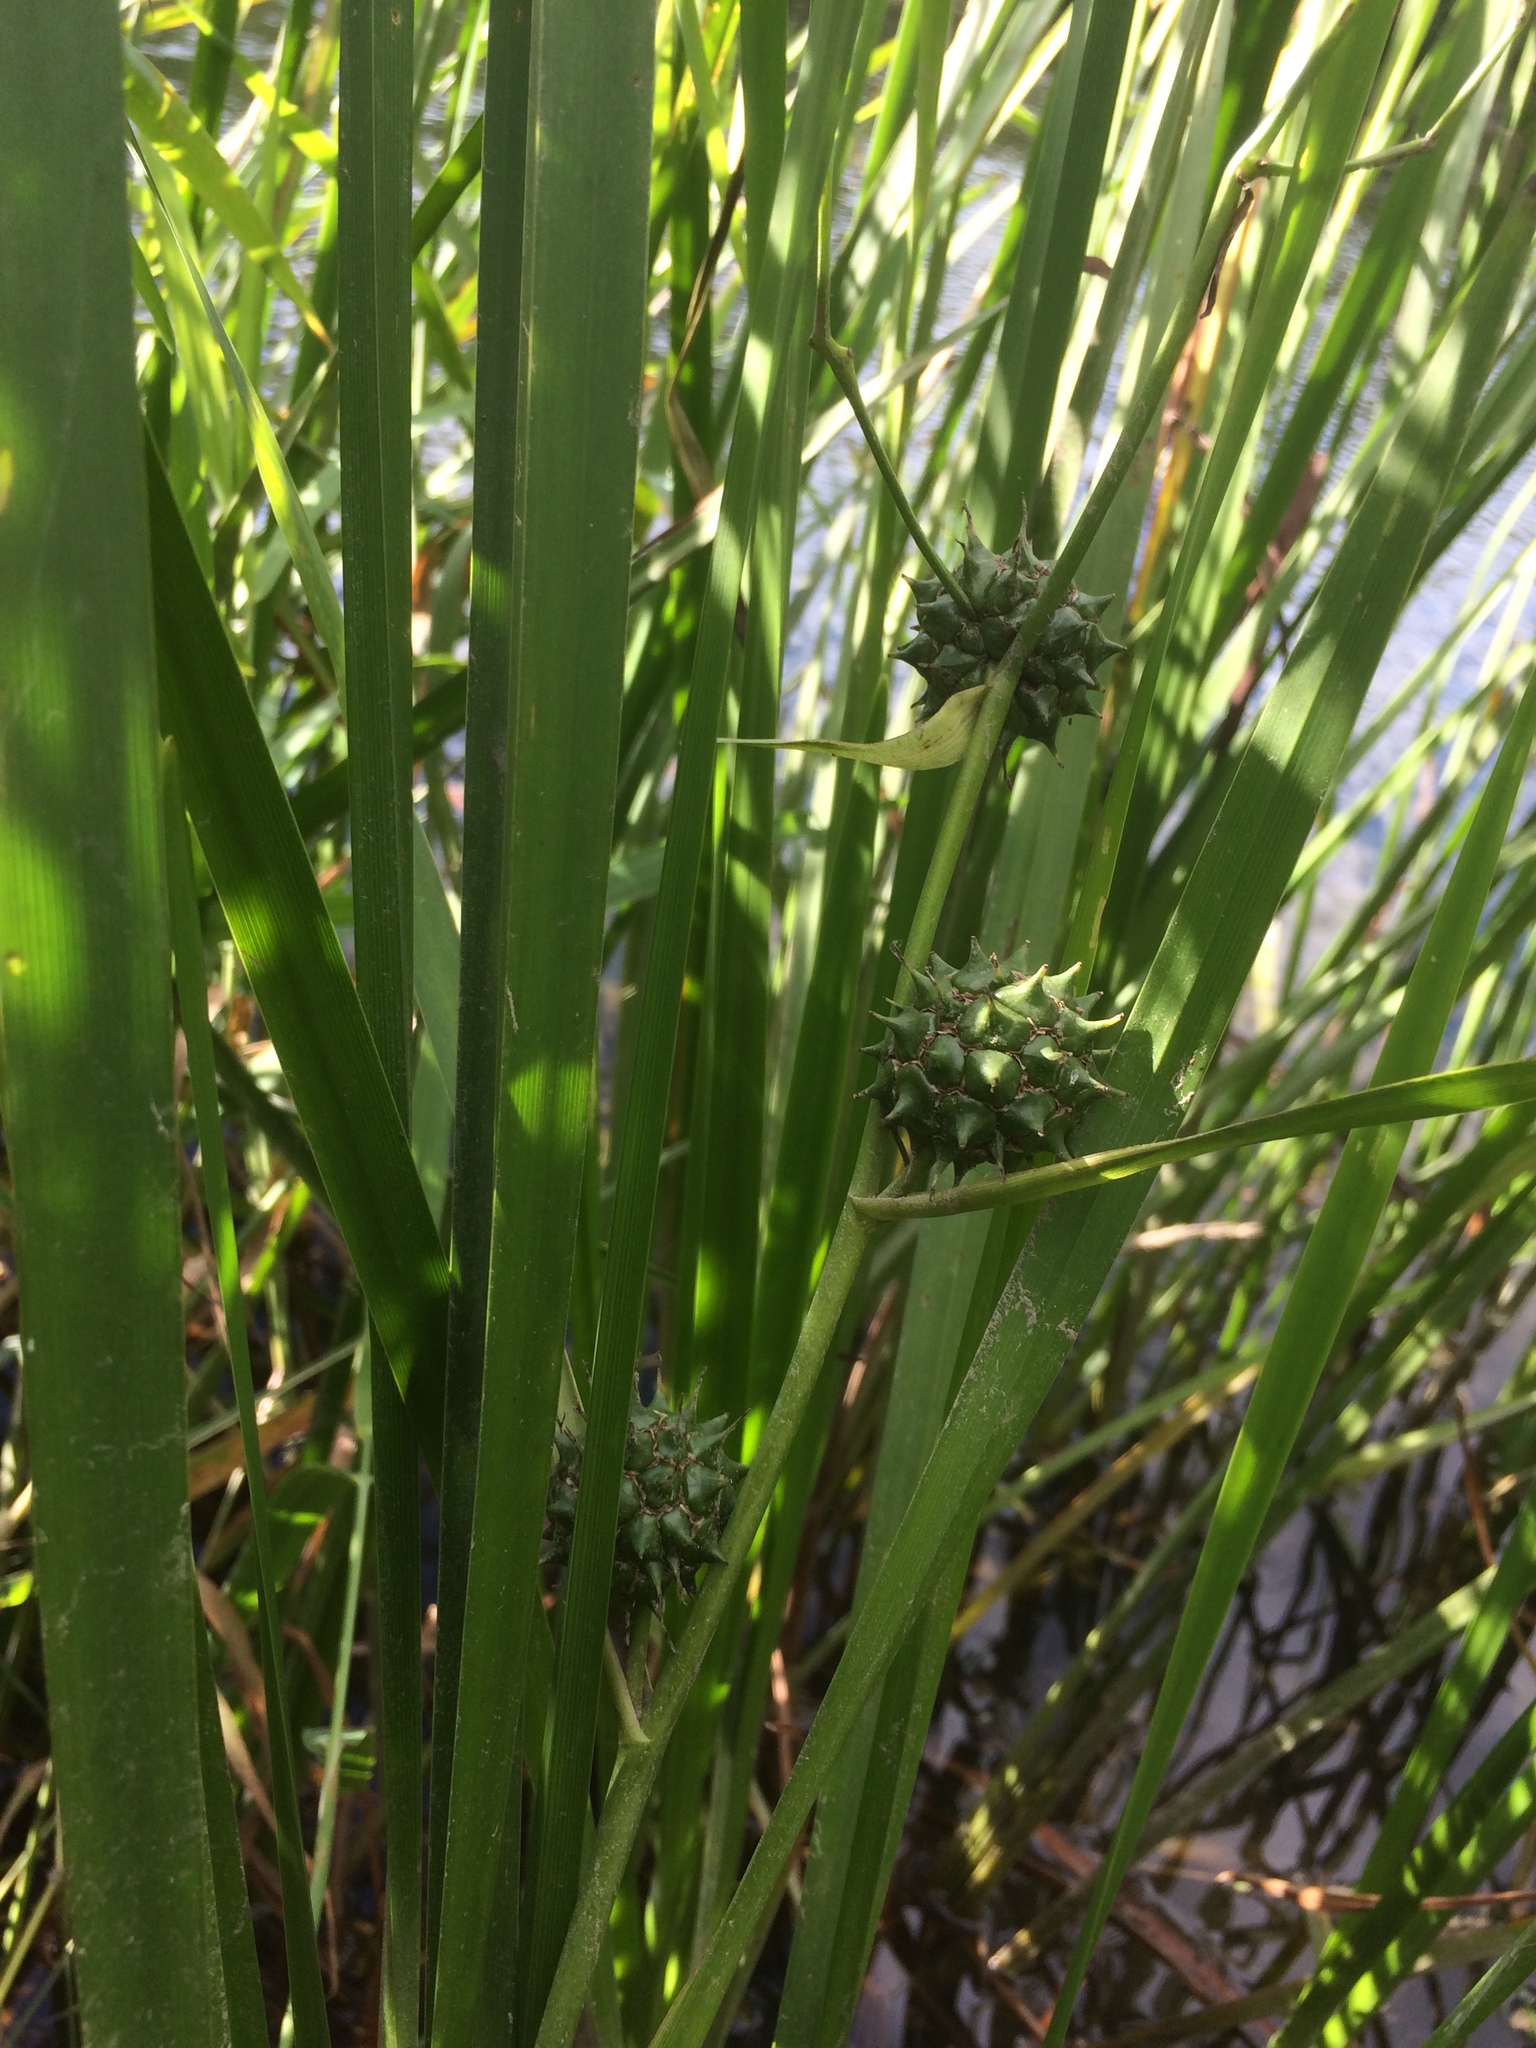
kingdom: Plantae
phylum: Tracheophyta
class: Liliopsida
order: Poales
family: Typhaceae
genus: Sparganium
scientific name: Sparganium eurycarpum
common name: Broad-fruited burreed
